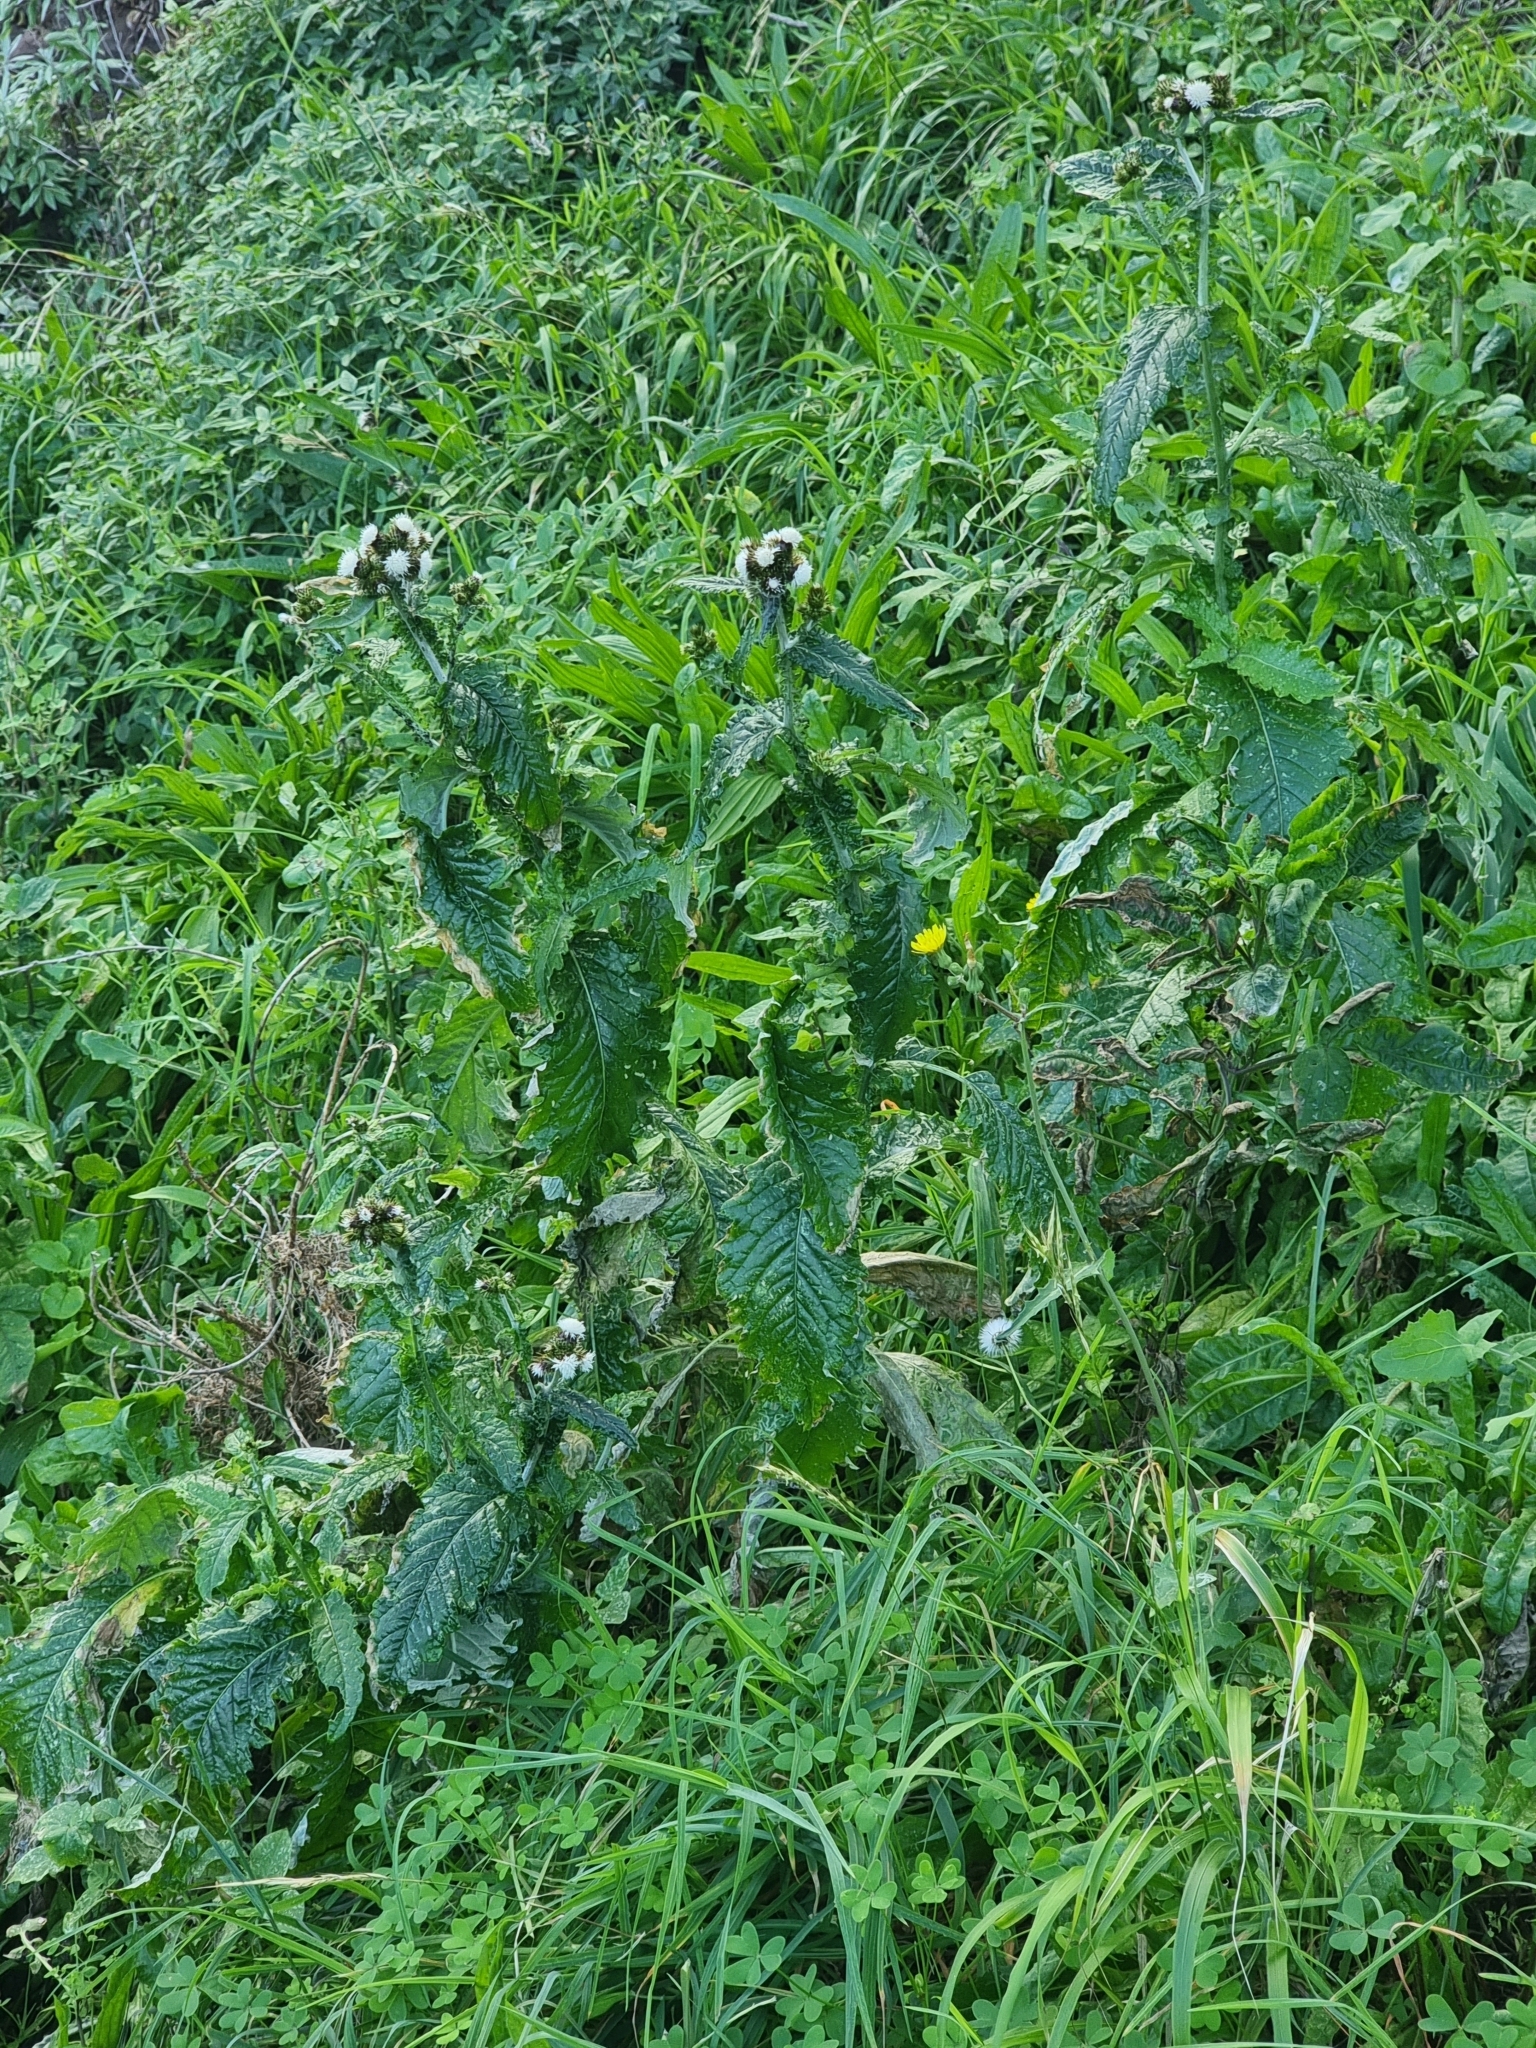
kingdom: Plantae
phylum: Tracheophyta
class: Magnoliopsida
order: Asterales
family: Asteraceae
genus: Carduus
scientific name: Carduus squarrosus
